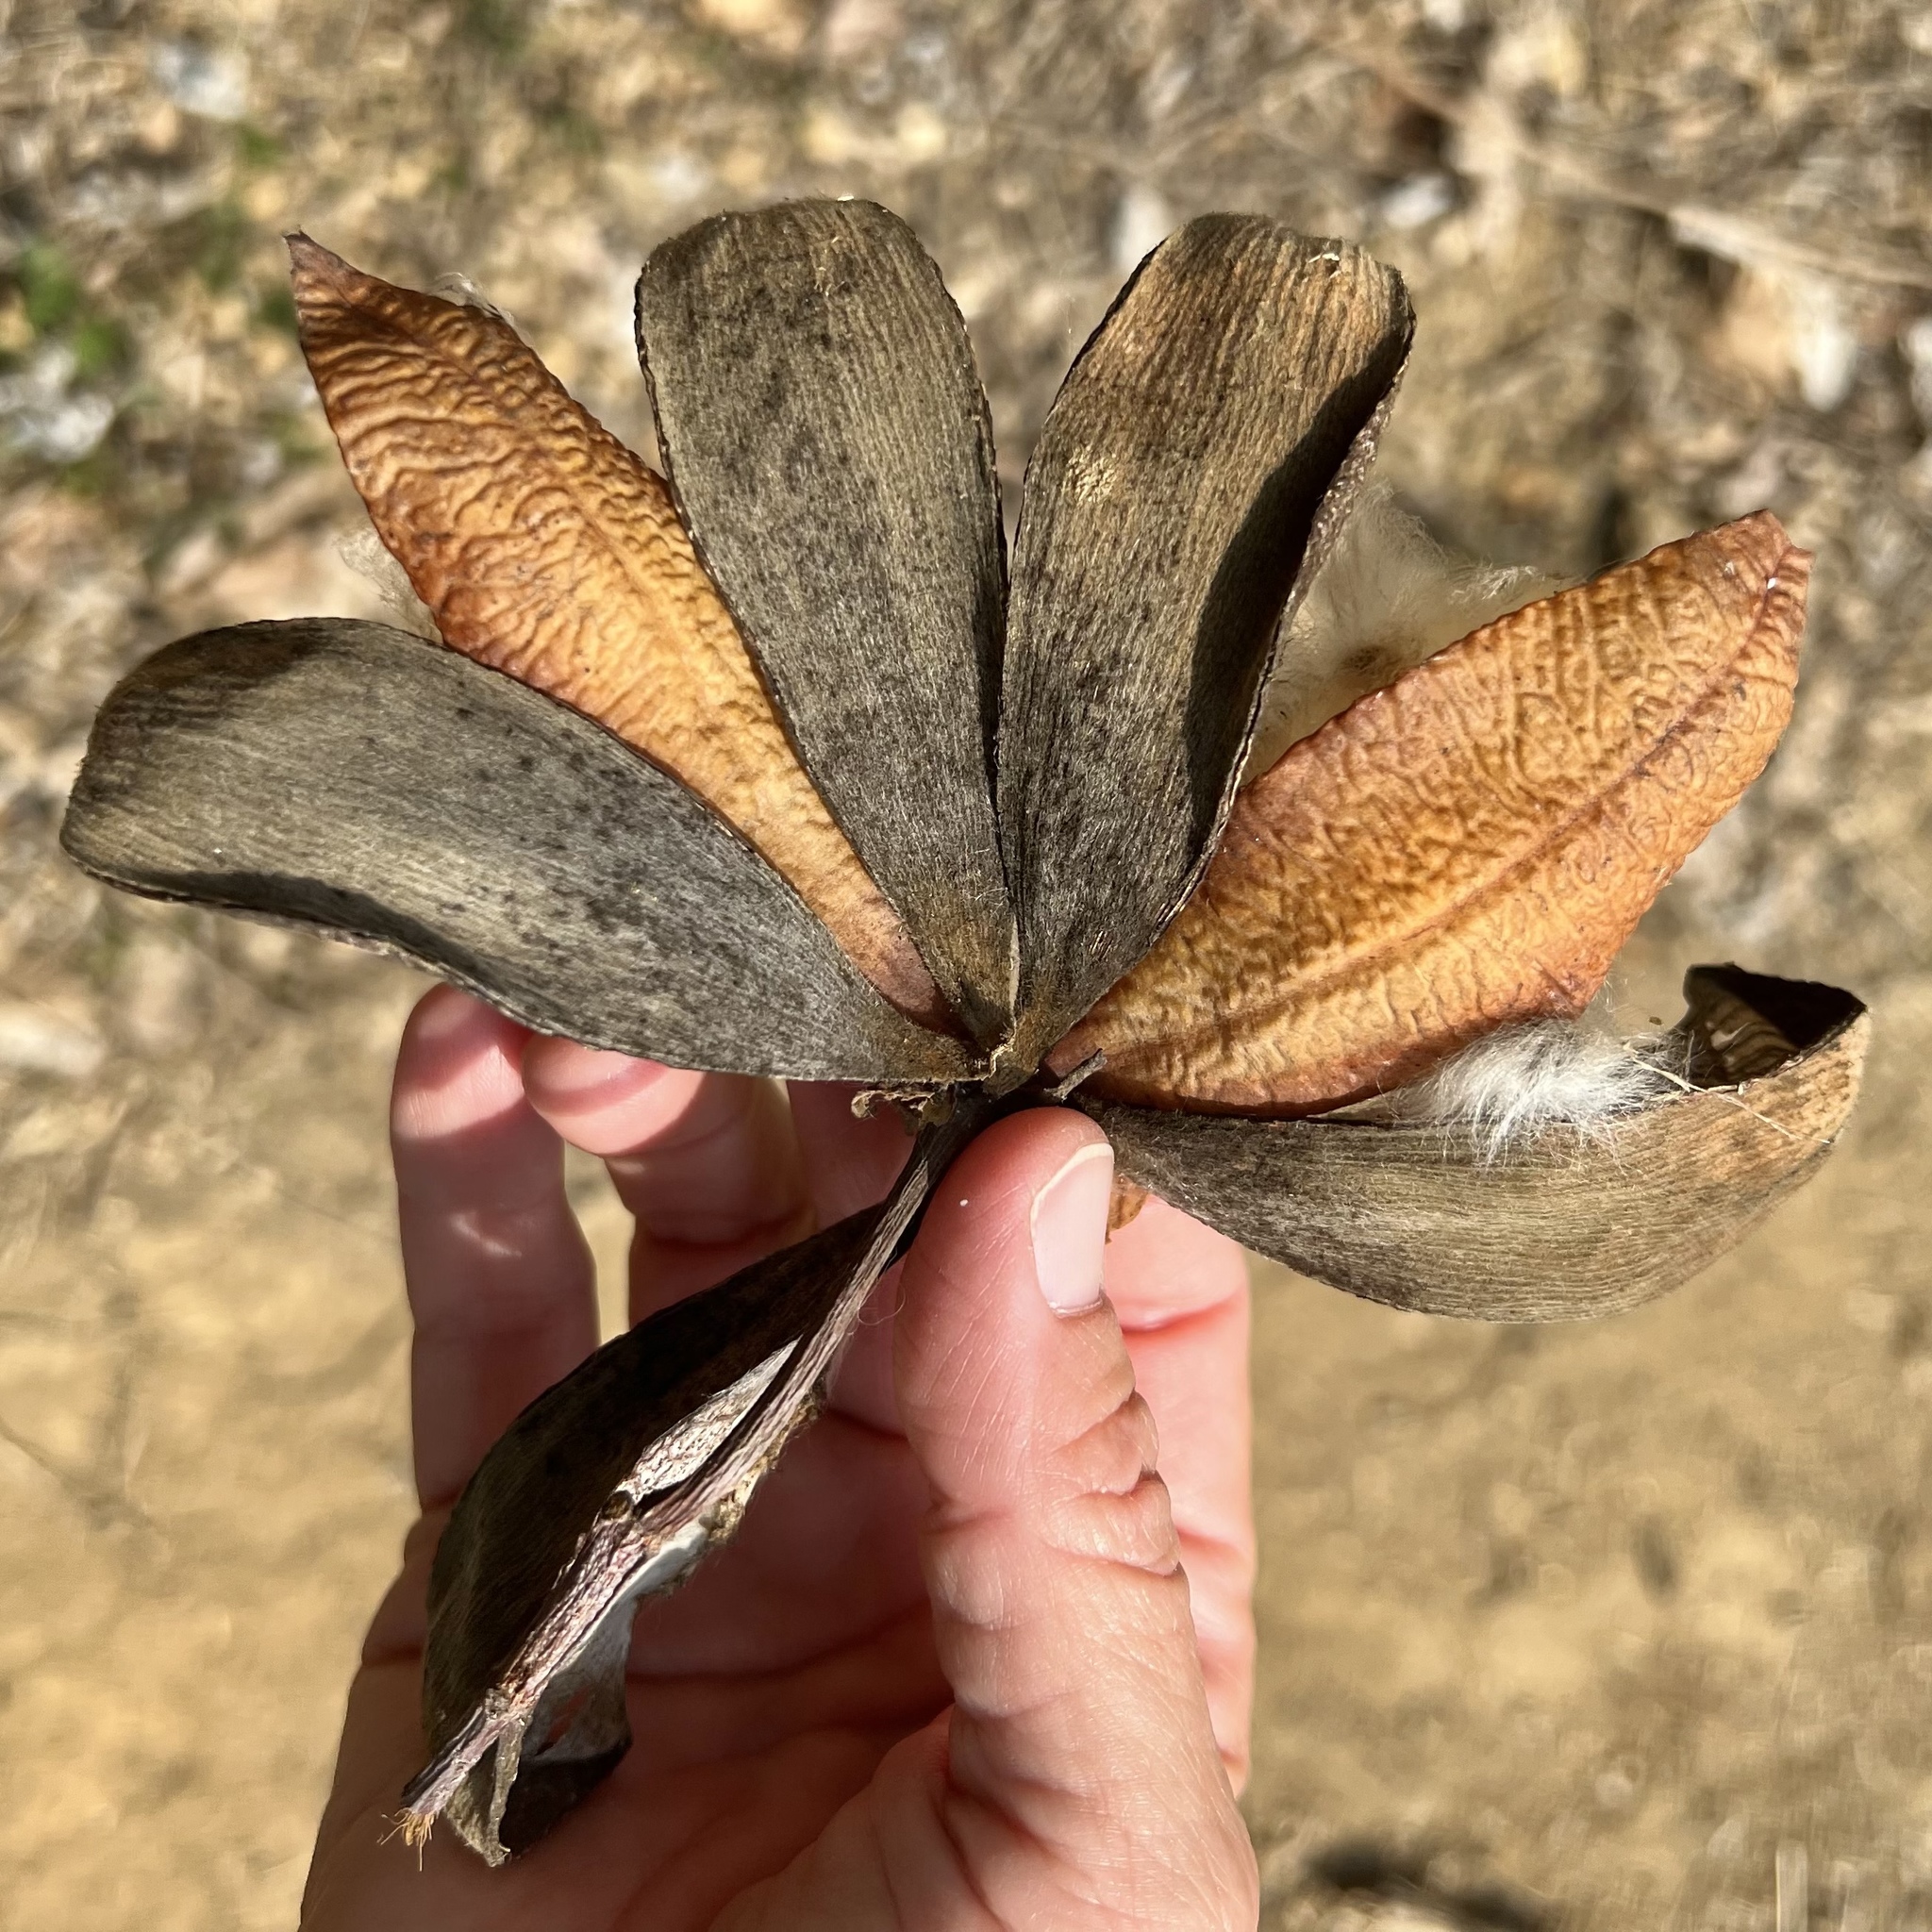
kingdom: Plantae
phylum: Tracheophyta
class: Magnoliopsida
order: Malvales
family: Cochlospermaceae
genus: Cochlospermum
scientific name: Cochlospermum vitifolium
